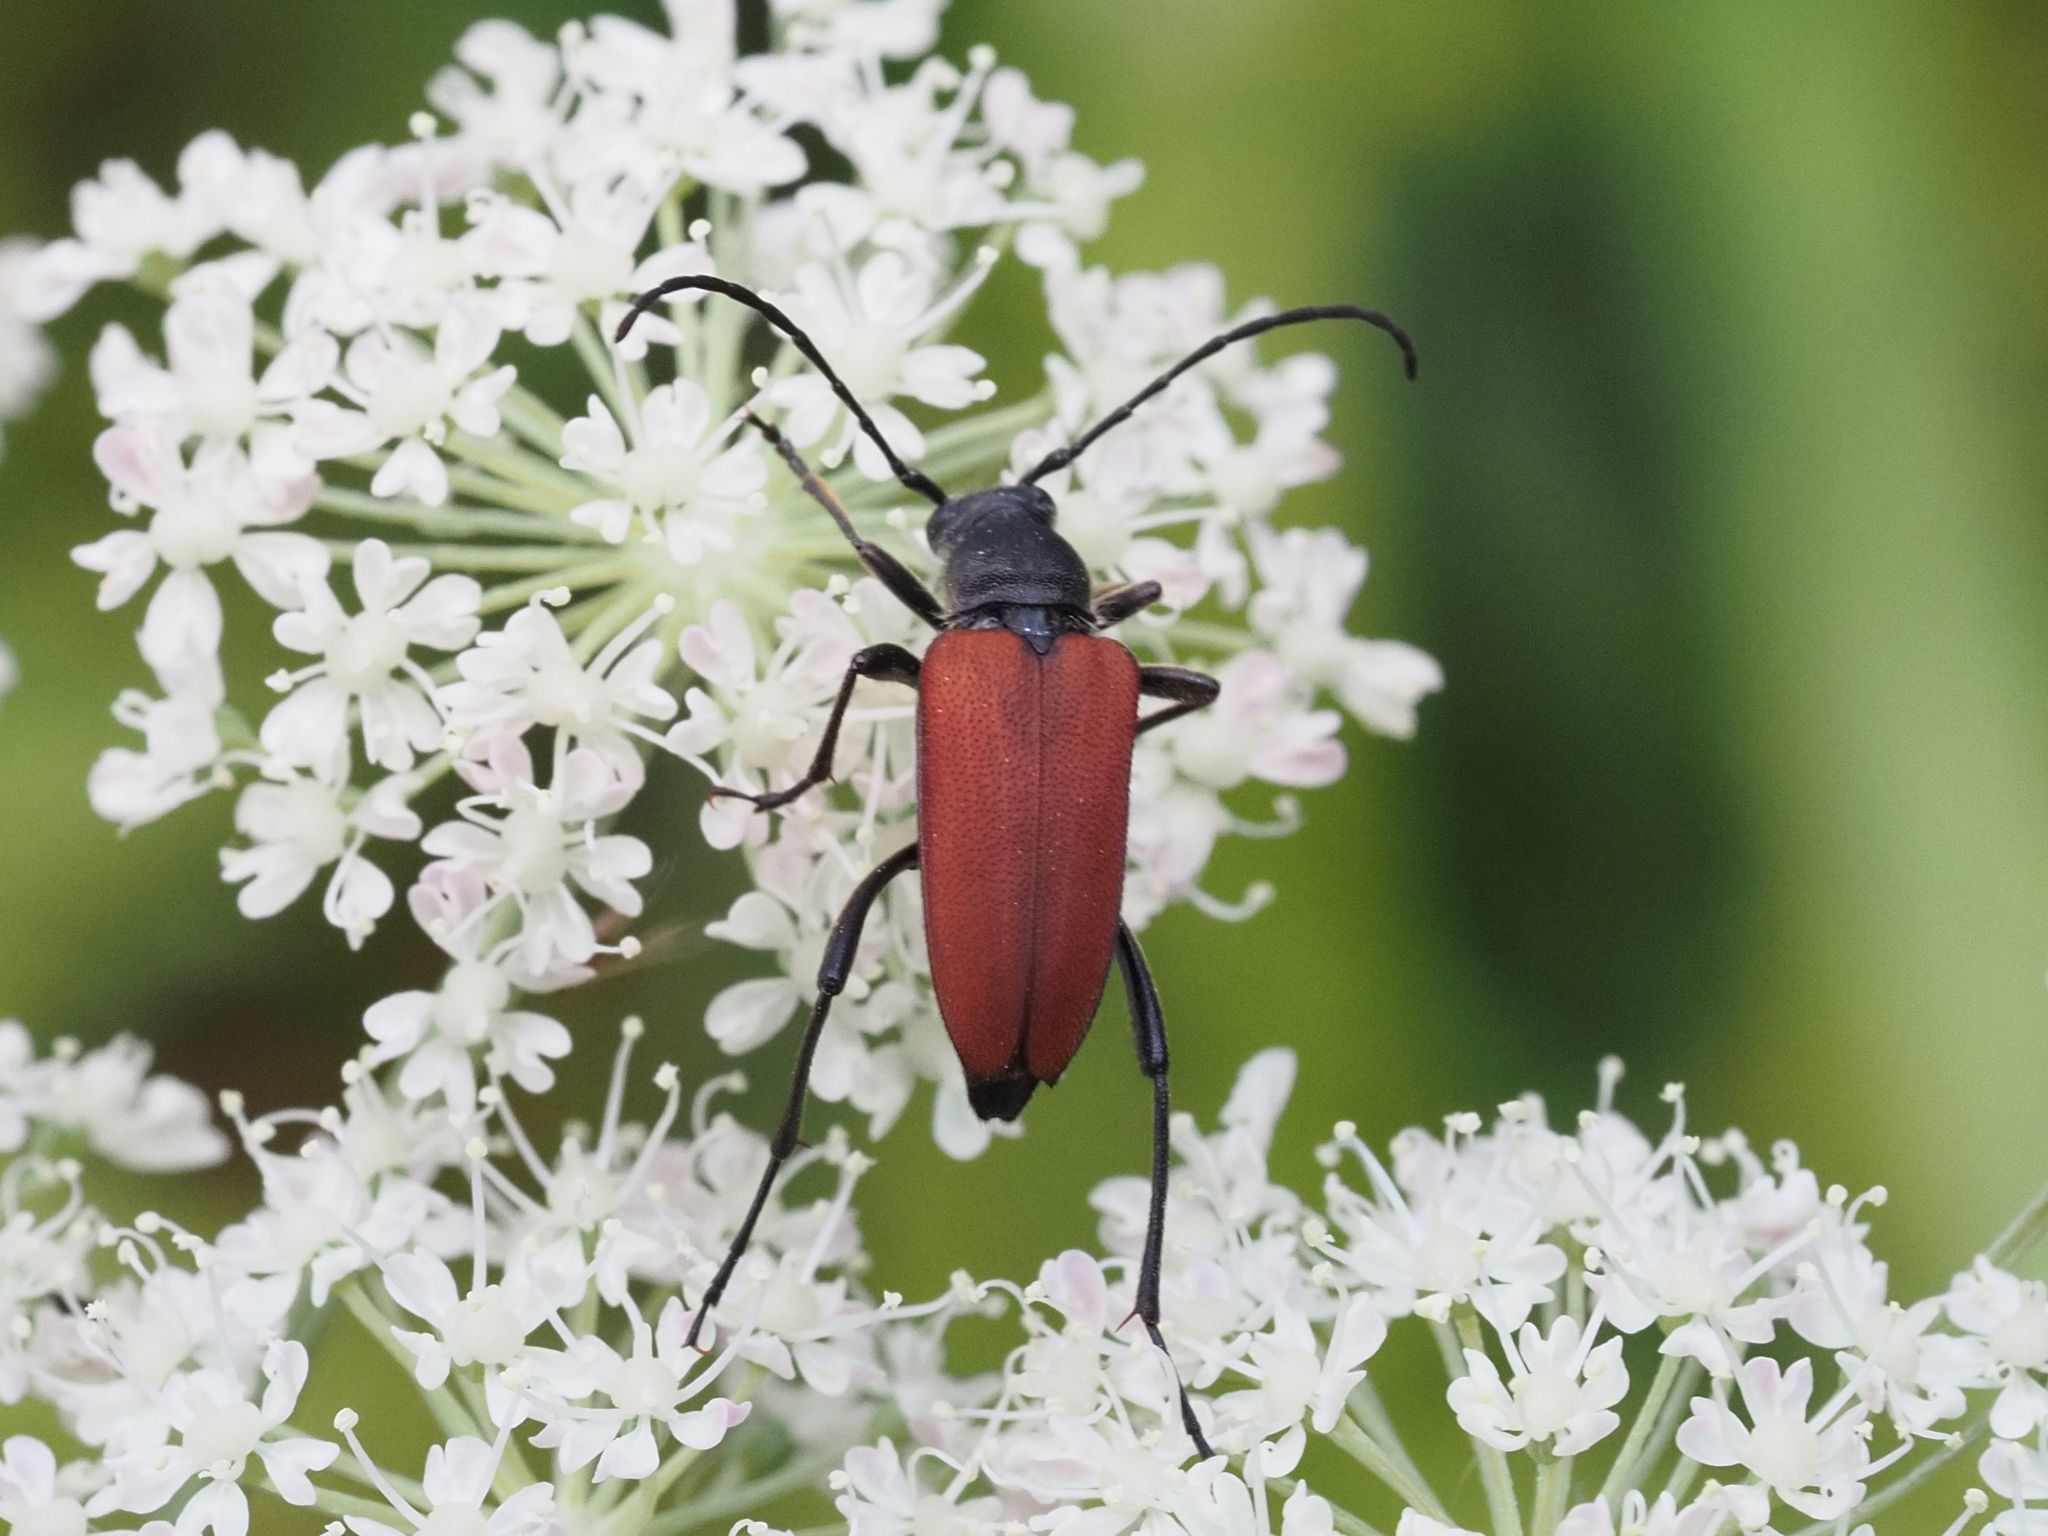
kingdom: Animalia
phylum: Arthropoda
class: Insecta
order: Coleoptera
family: Cerambycidae
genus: Anastrangalia
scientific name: Anastrangalia sanguinolenta
